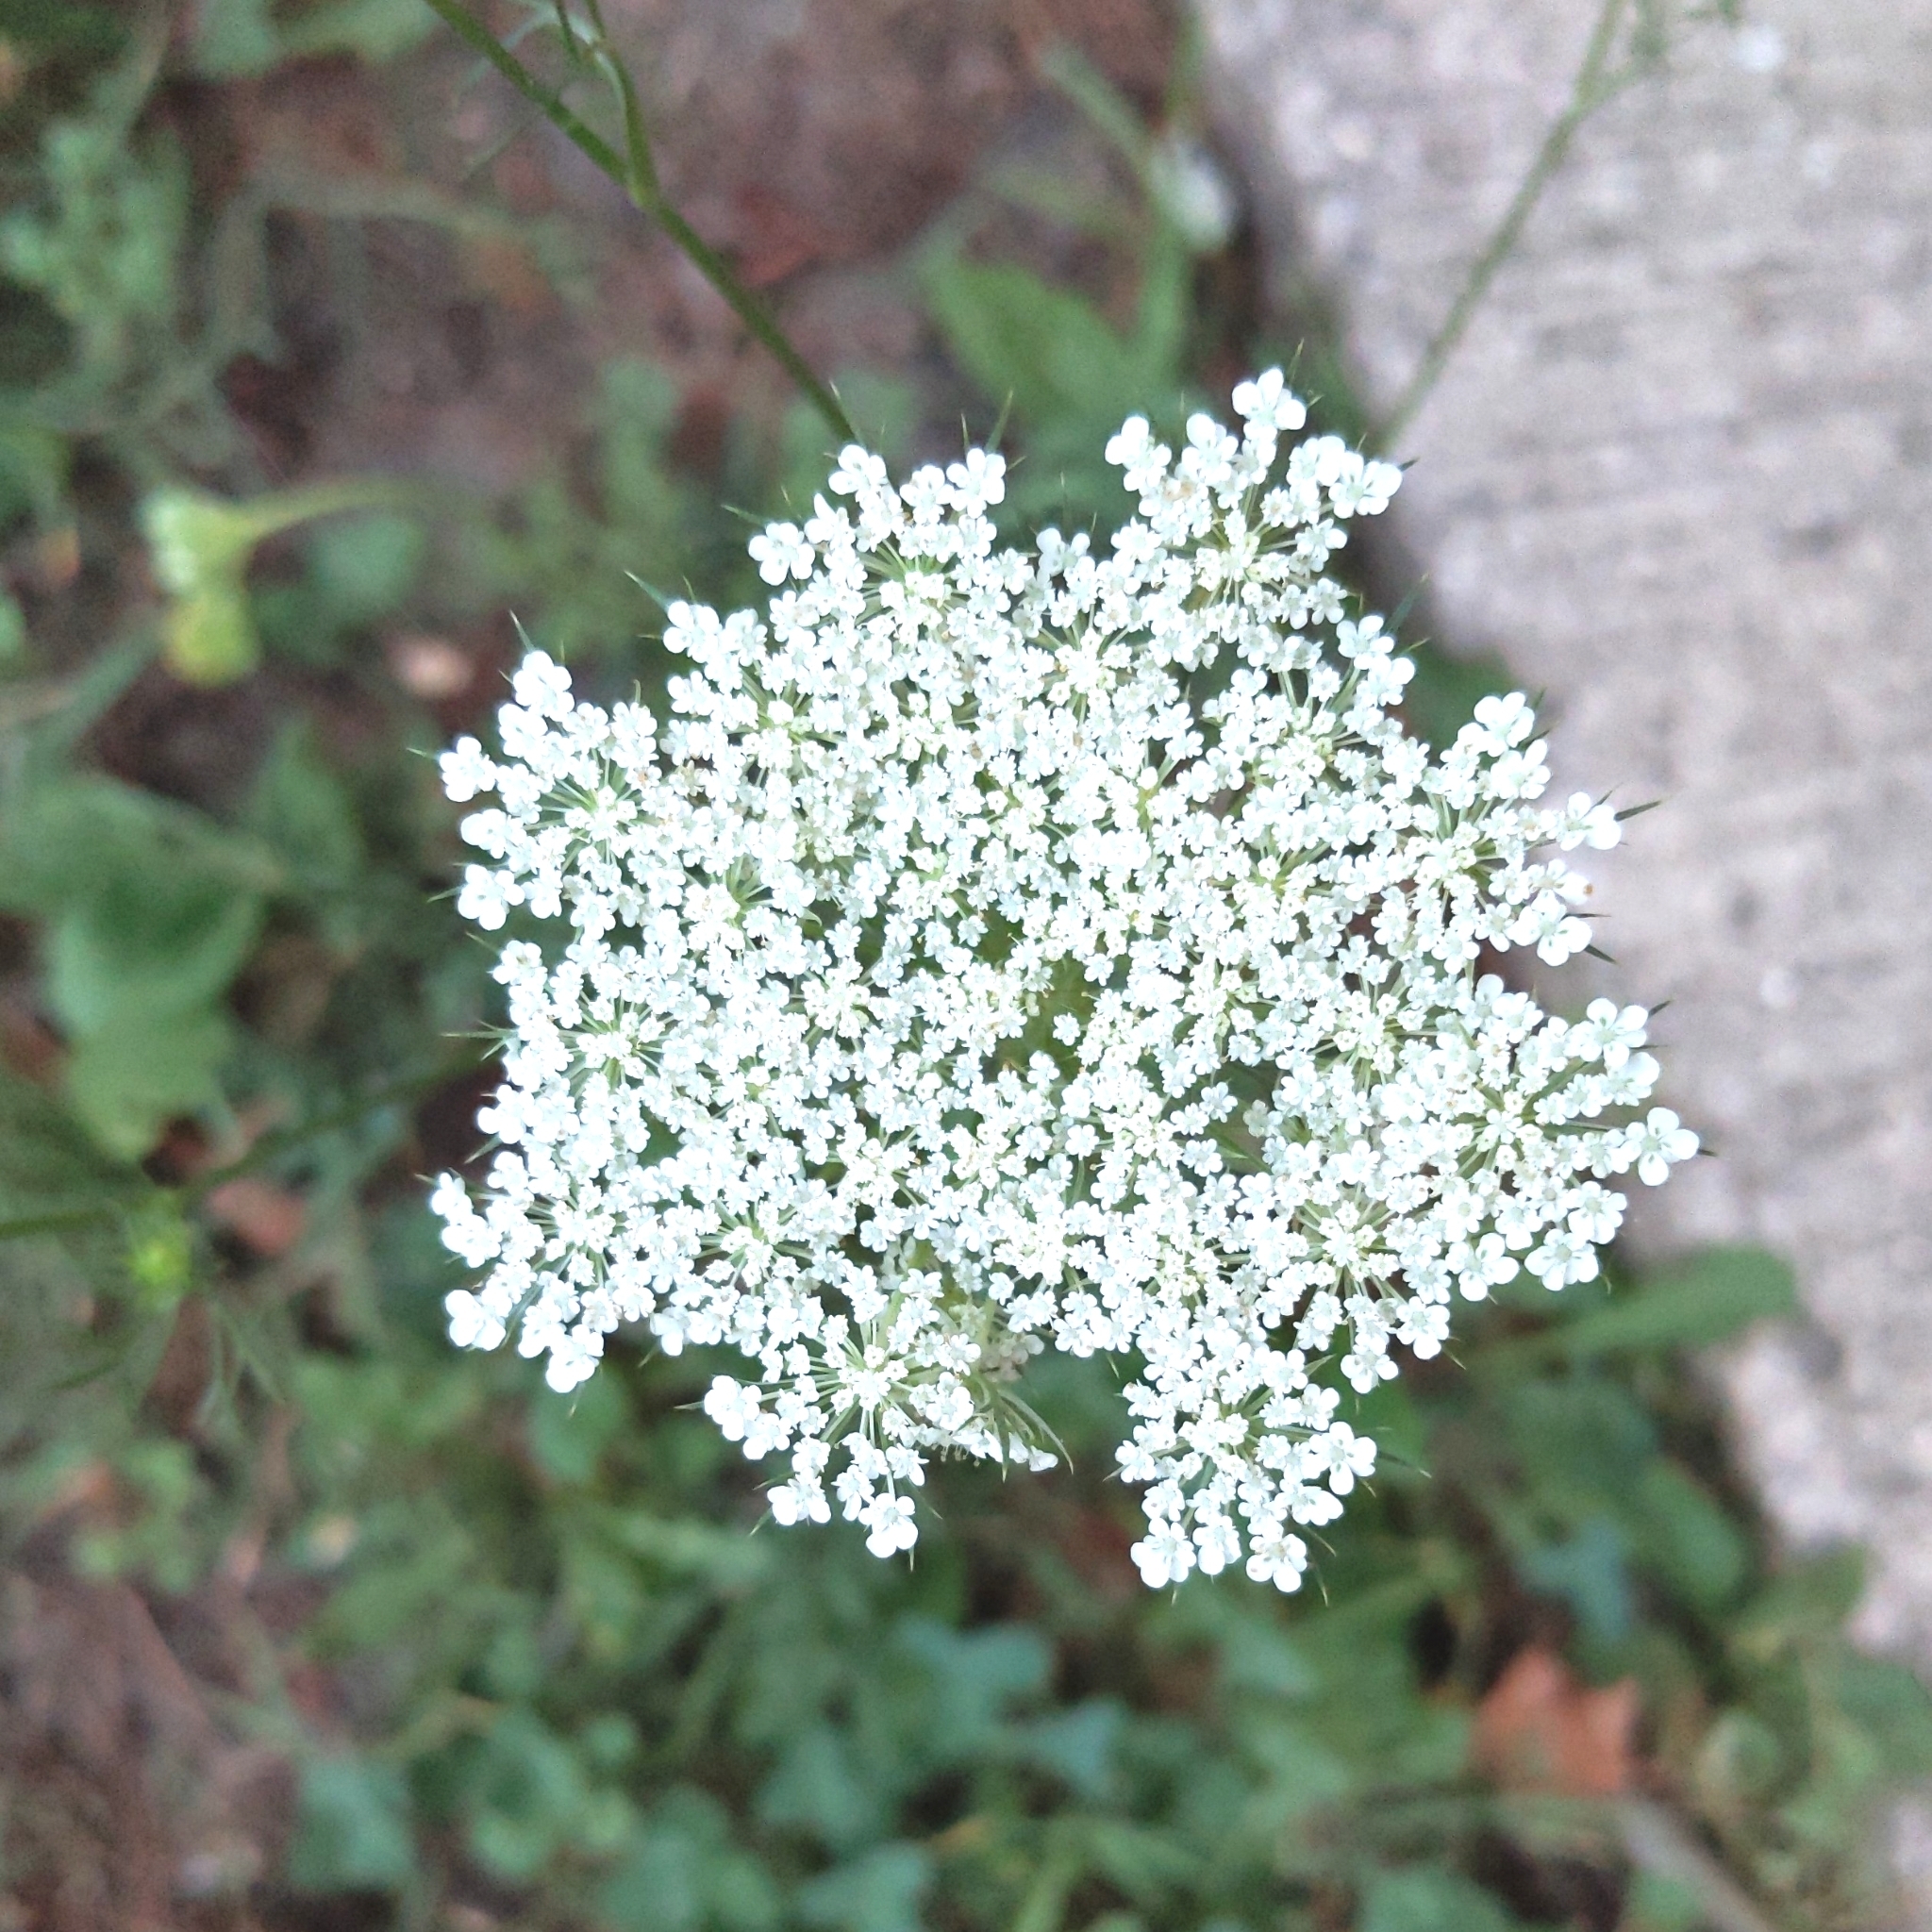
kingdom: Plantae
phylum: Tracheophyta
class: Magnoliopsida
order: Apiales
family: Apiaceae
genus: Daucus
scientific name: Daucus carota
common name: Wild carrot
